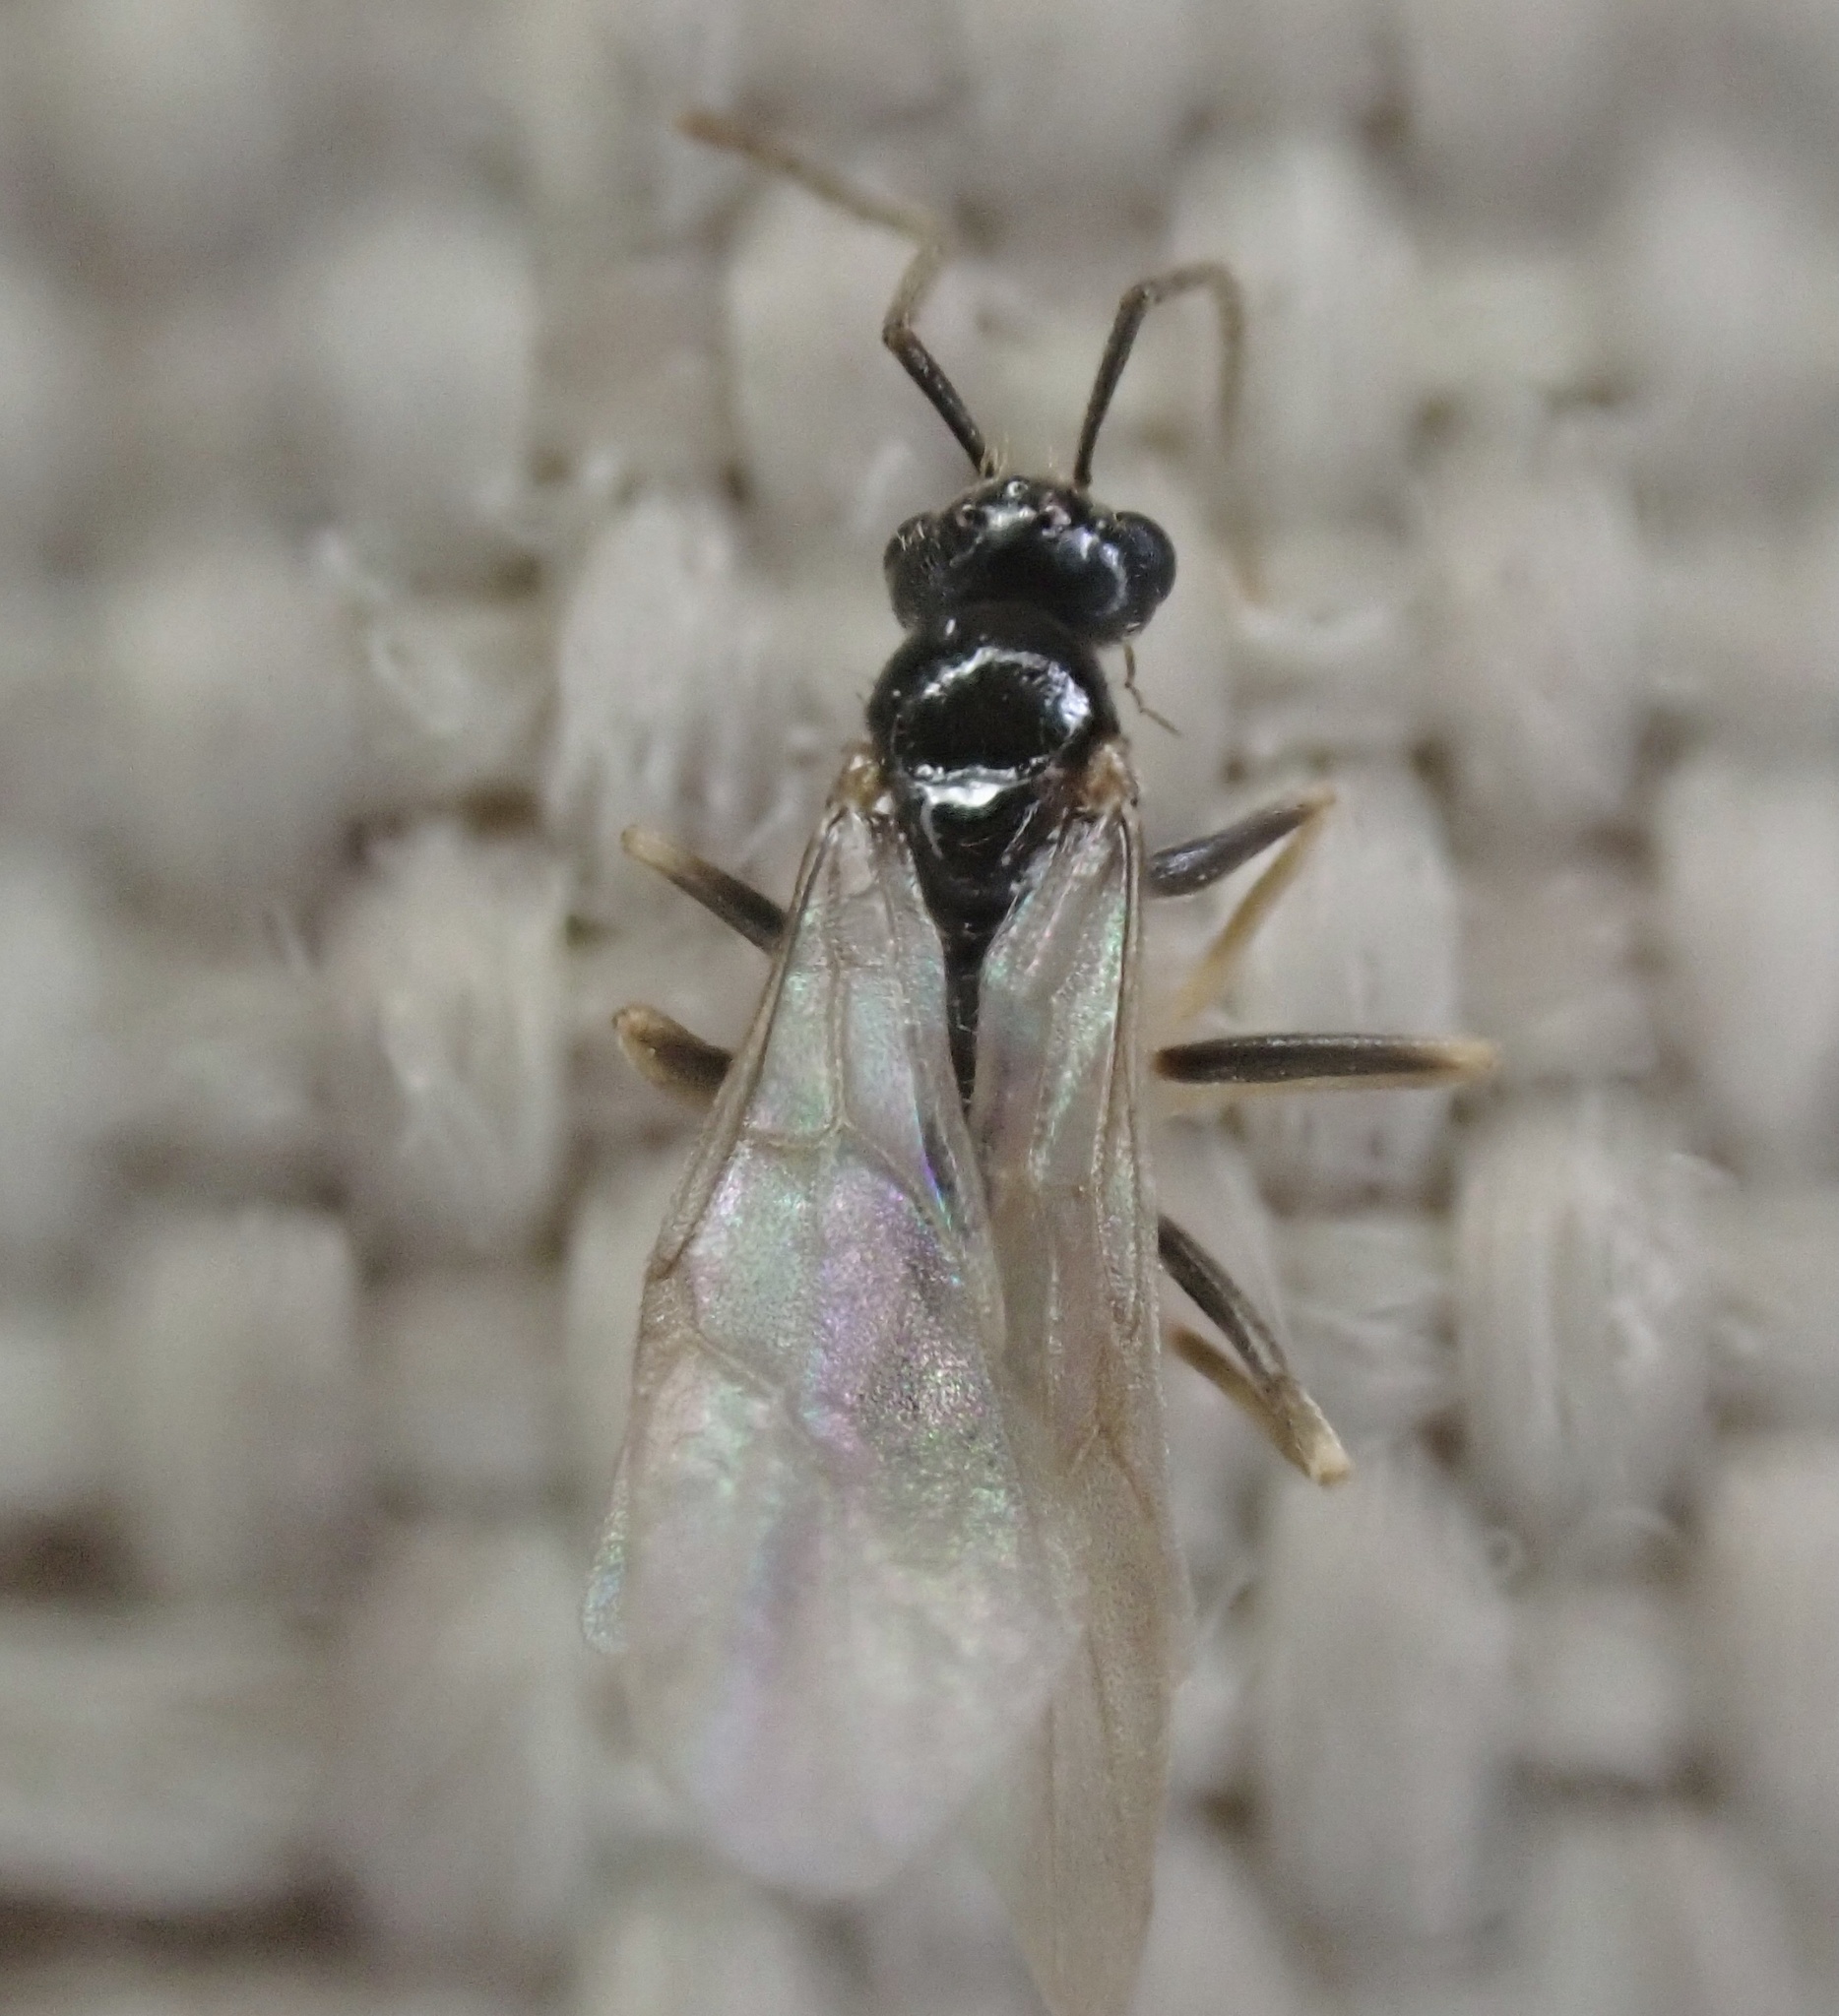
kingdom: Animalia
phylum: Arthropoda
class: Insecta
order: Hymenoptera
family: Formicidae
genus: Prenolepis
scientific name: Prenolepis imparis
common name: Small honey ant
